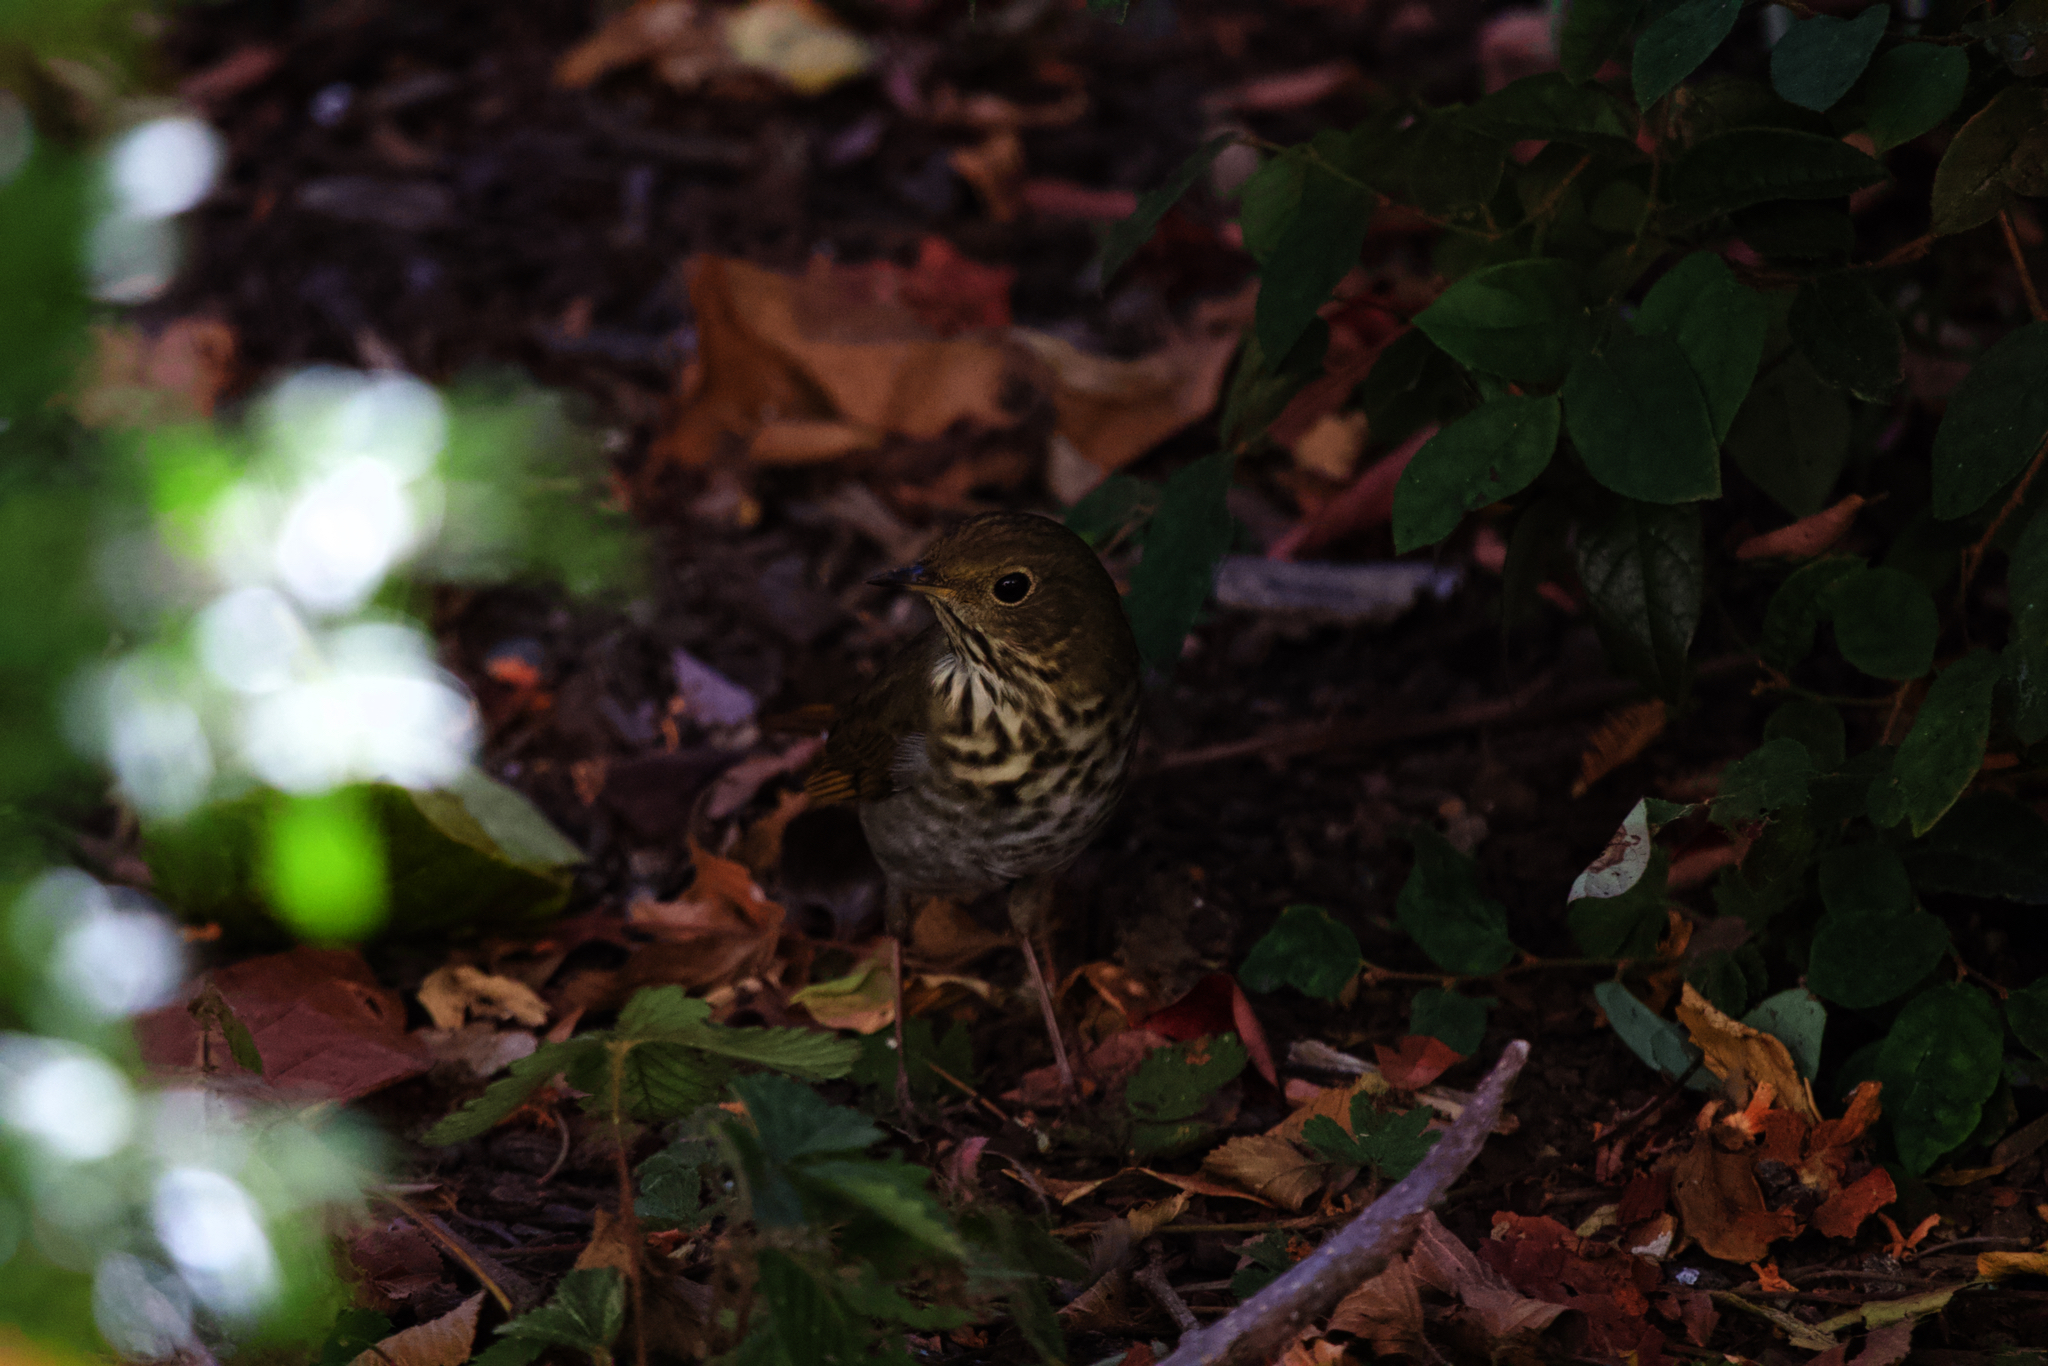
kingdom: Animalia
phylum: Chordata
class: Aves
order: Passeriformes
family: Turdidae
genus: Catharus
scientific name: Catharus guttatus
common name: Hermit thrush
